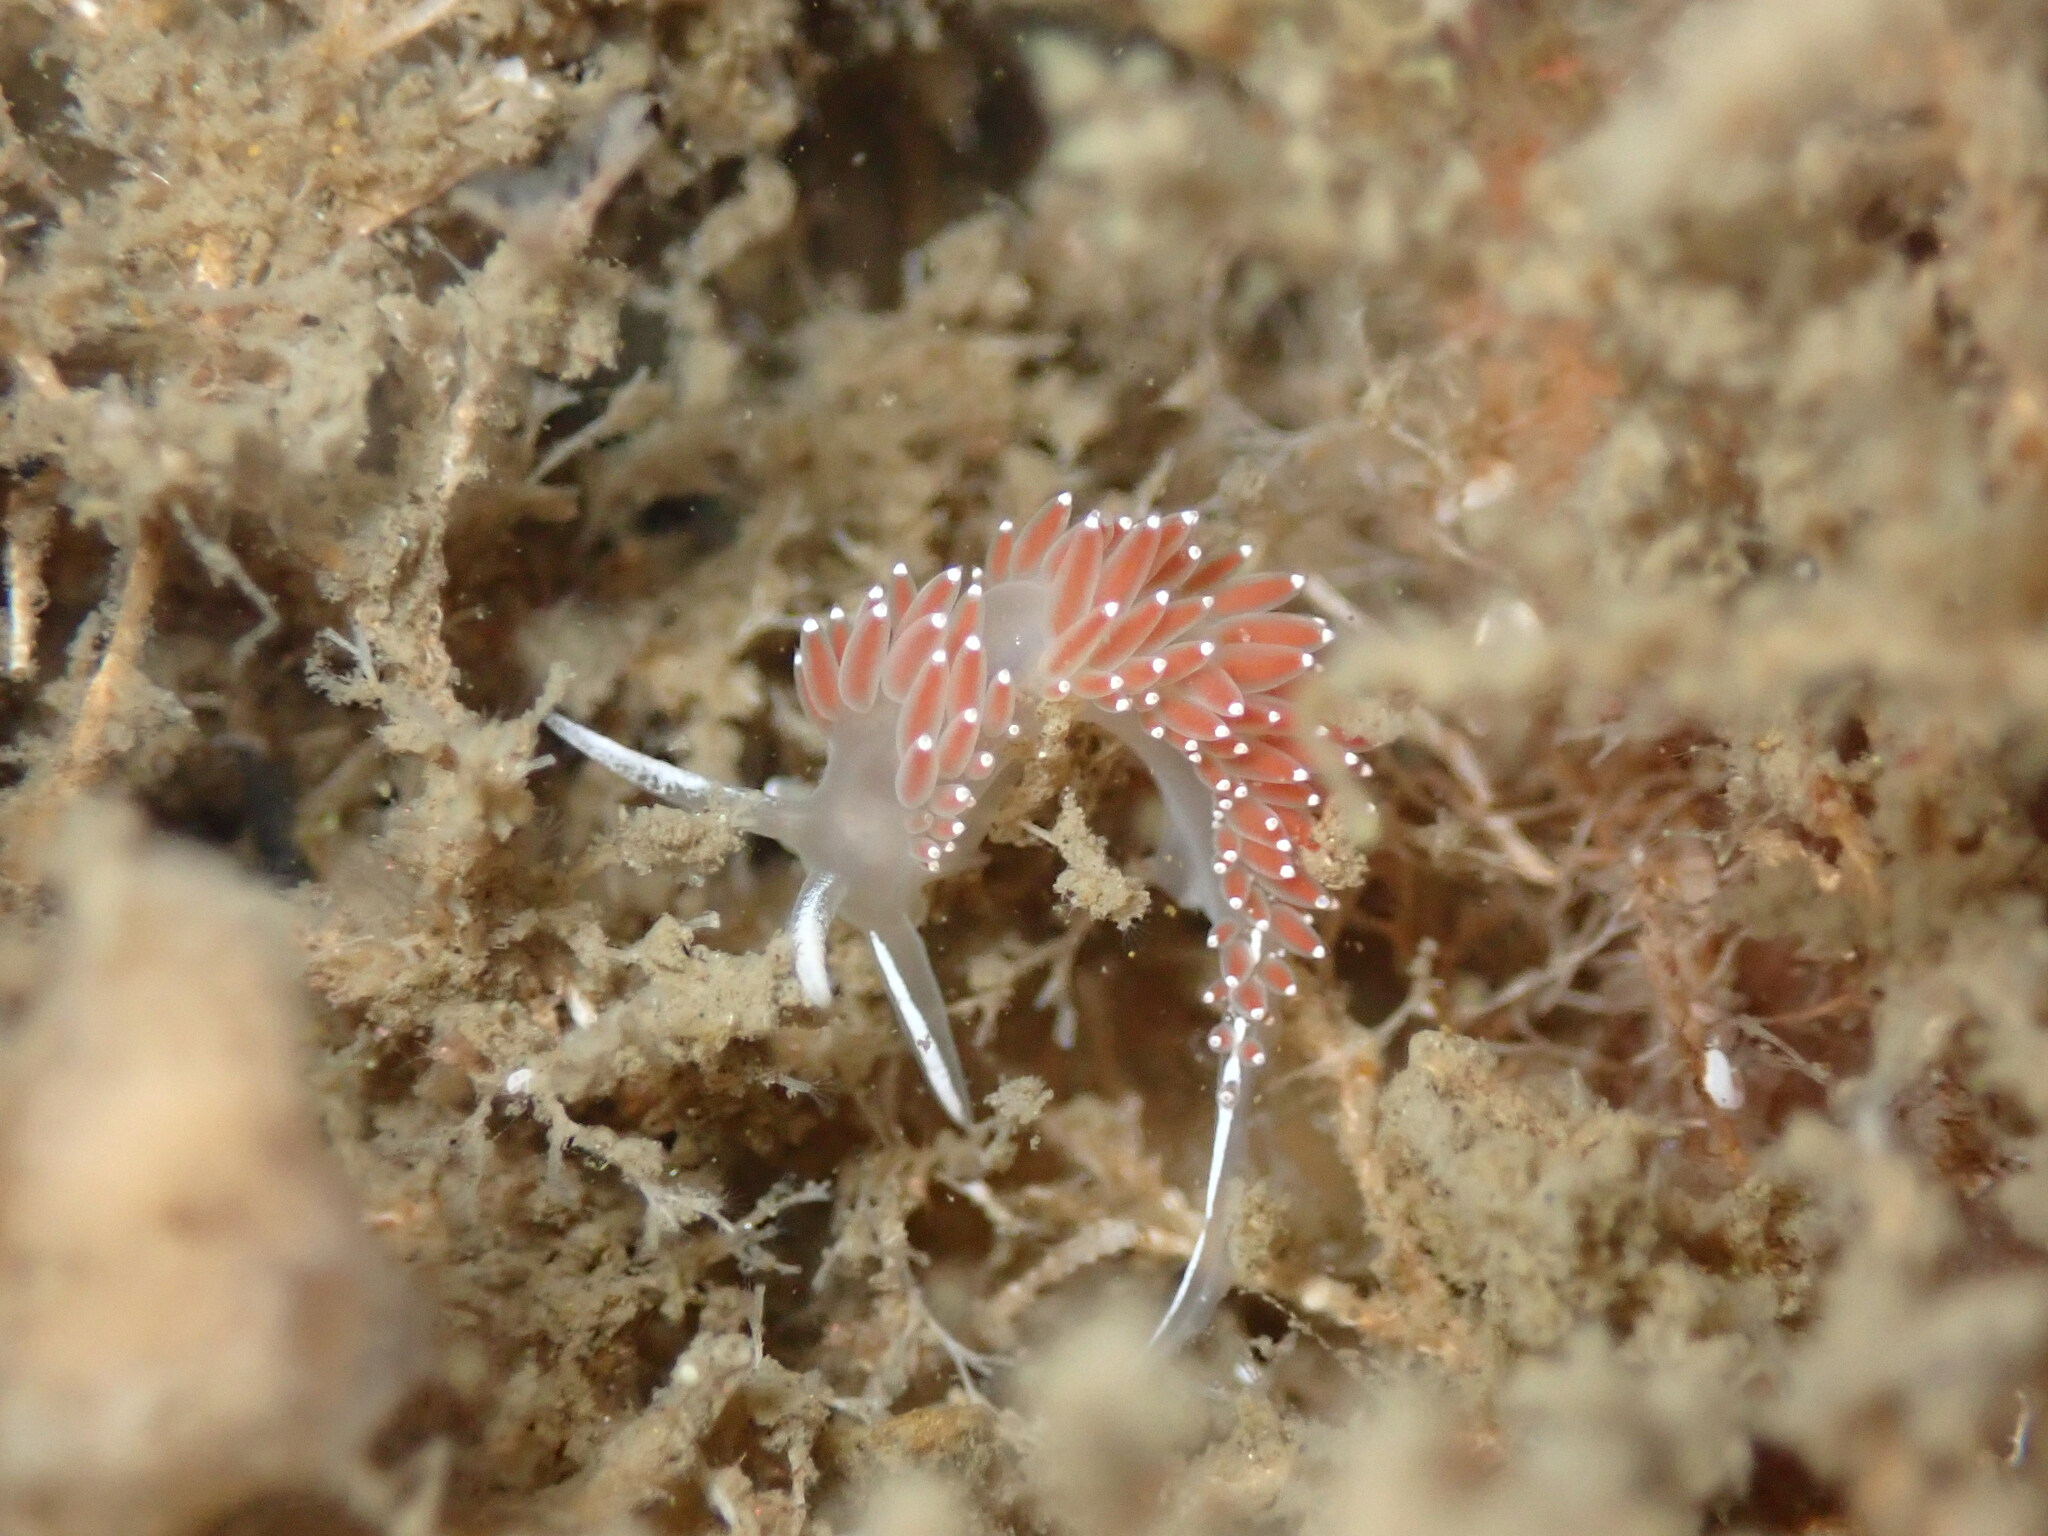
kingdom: Animalia
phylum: Mollusca
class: Gastropoda
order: Nudibranchia
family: Coryphellidae
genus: Coryphella
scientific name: Coryphella verrucosa
